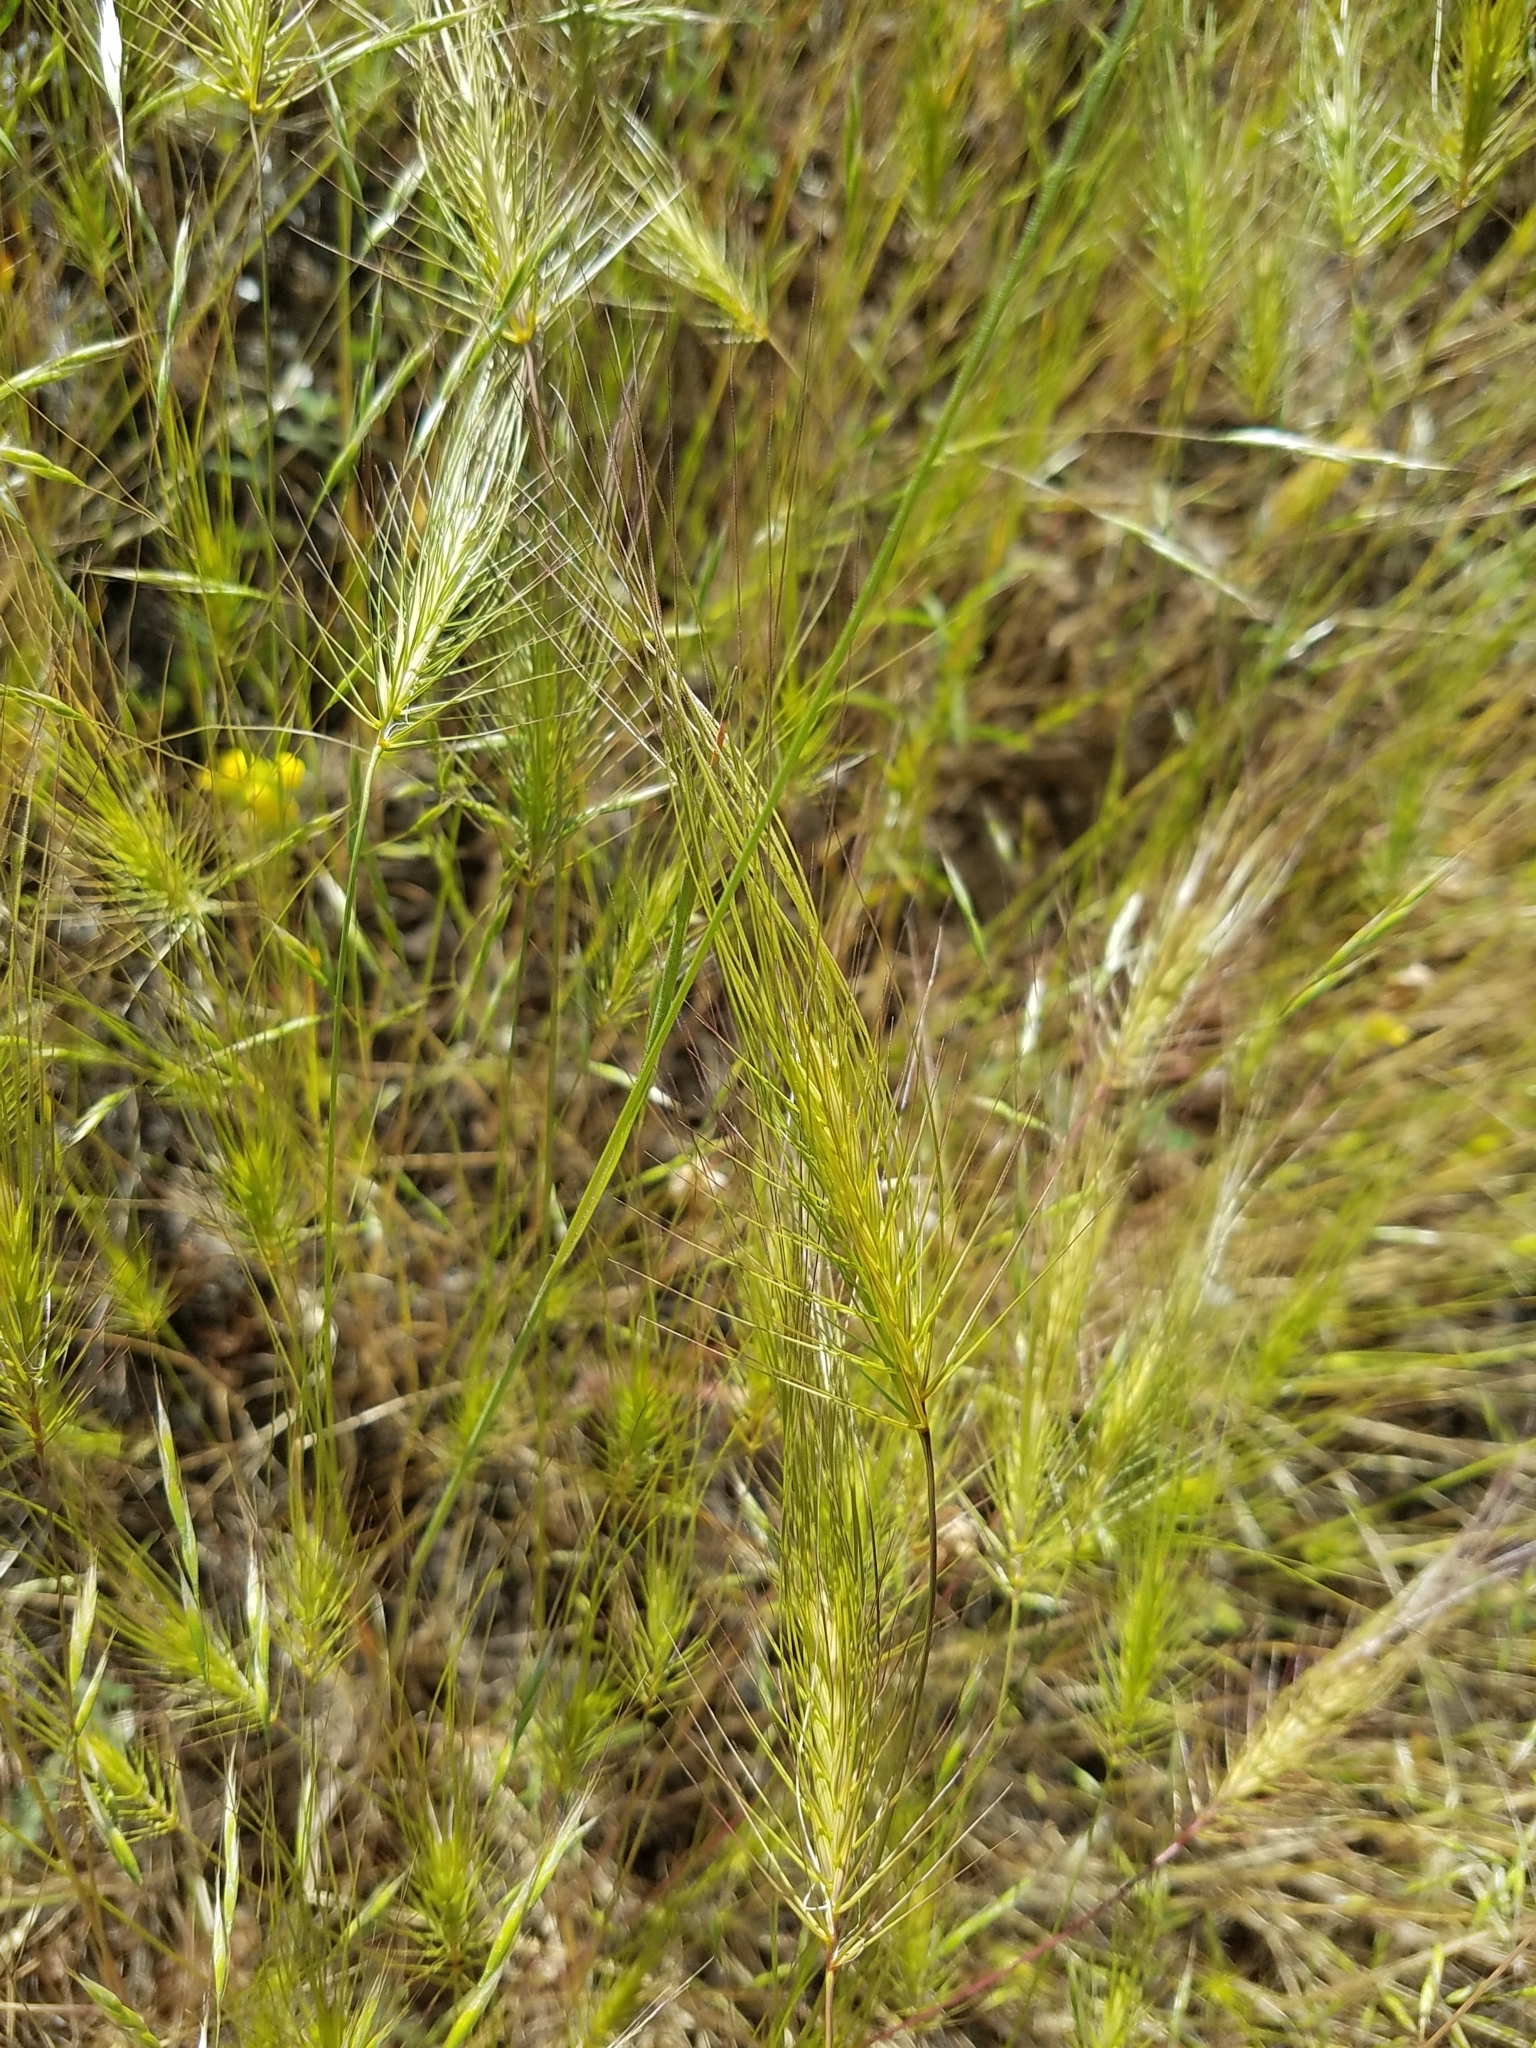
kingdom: Plantae
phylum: Tracheophyta
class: Liliopsida
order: Poales
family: Poaceae
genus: Taeniatherum
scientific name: Taeniatherum caput-medusae
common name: Medusahead
